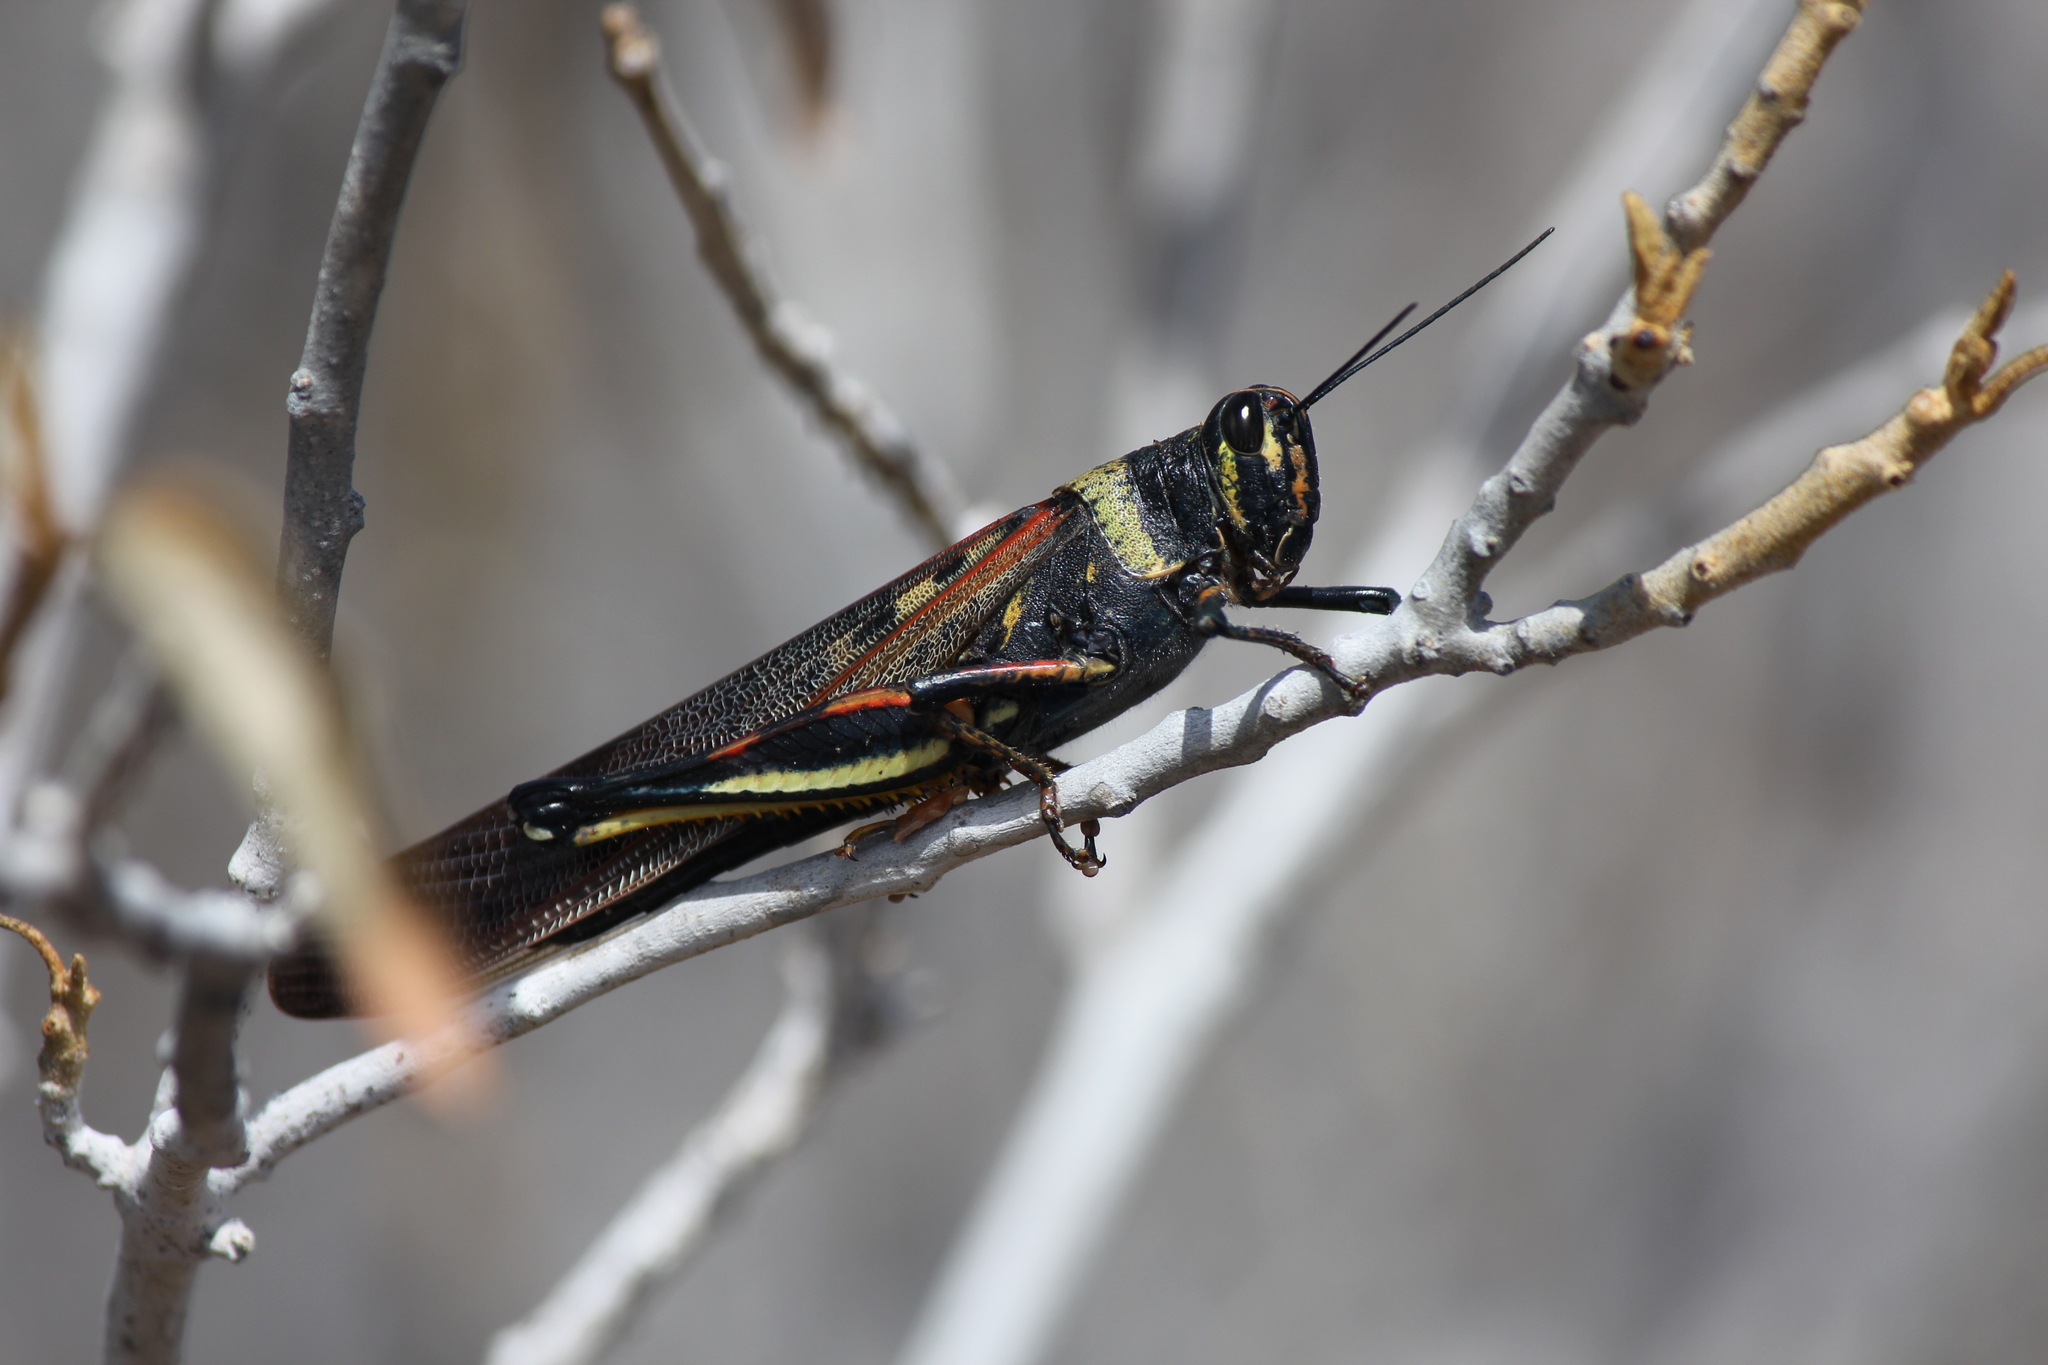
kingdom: Animalia
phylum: Arthropoda
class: Insecta
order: Orthoptera
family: Acrididae
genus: Schistocerca
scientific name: Schistocerca melanocera
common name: Large painted locust
